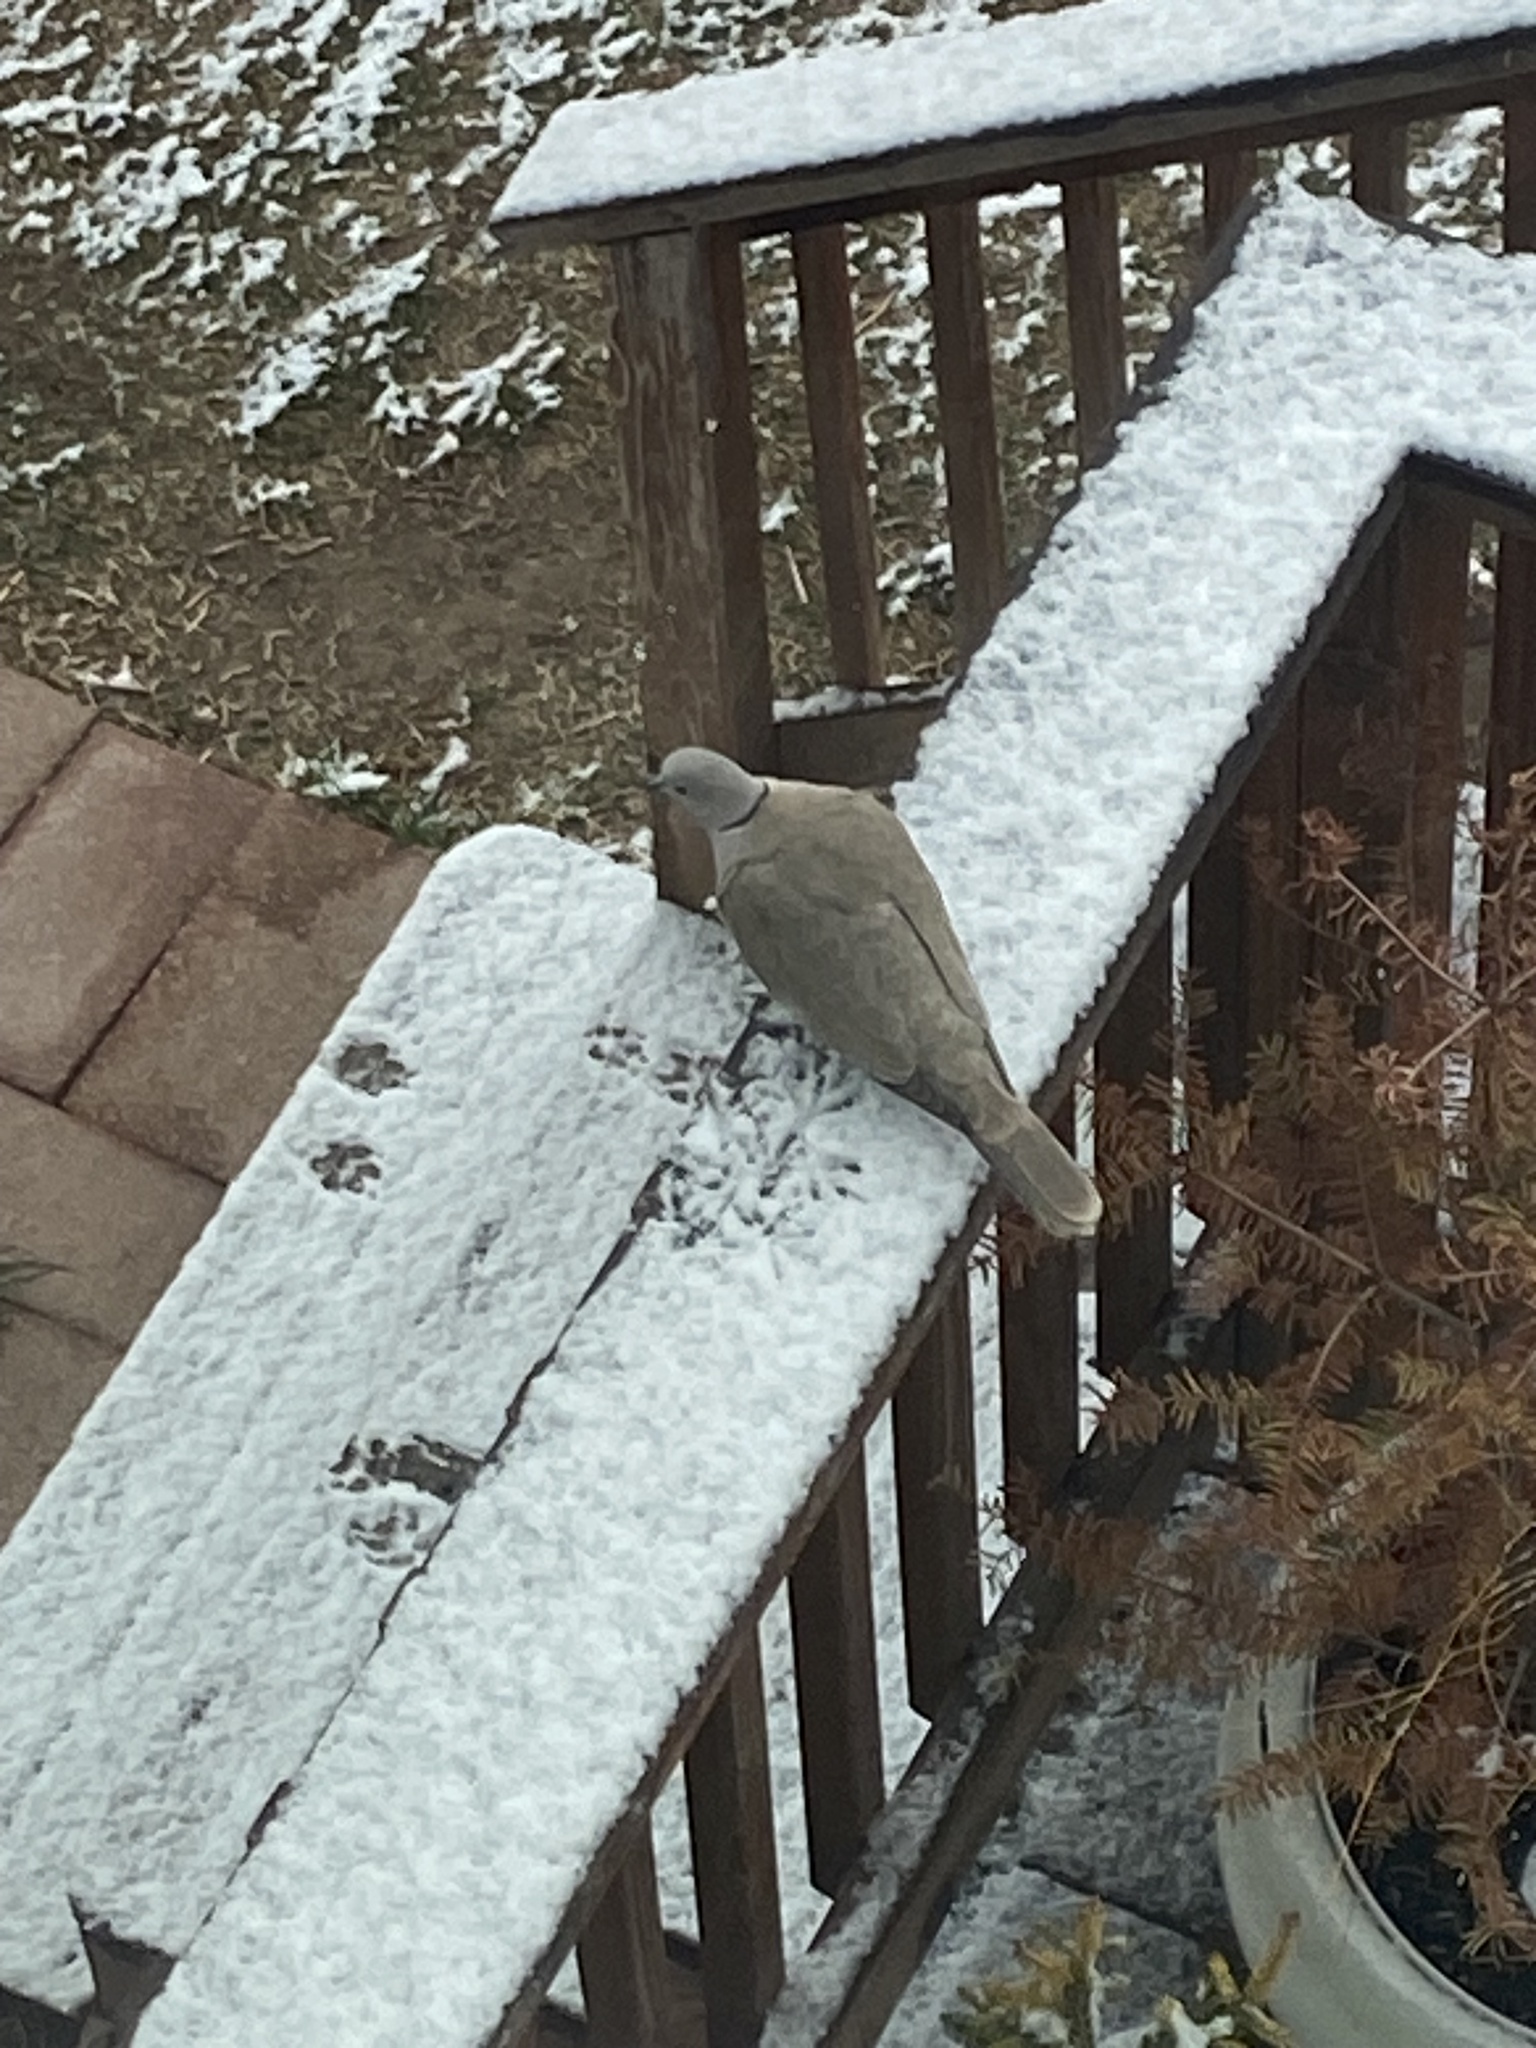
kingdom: Animalia
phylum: Chordata
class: Aves
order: Columbiformes
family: Columbidae
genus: Streptopelia
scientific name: Streptopelia decaocto
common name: Eurasian collared dove
